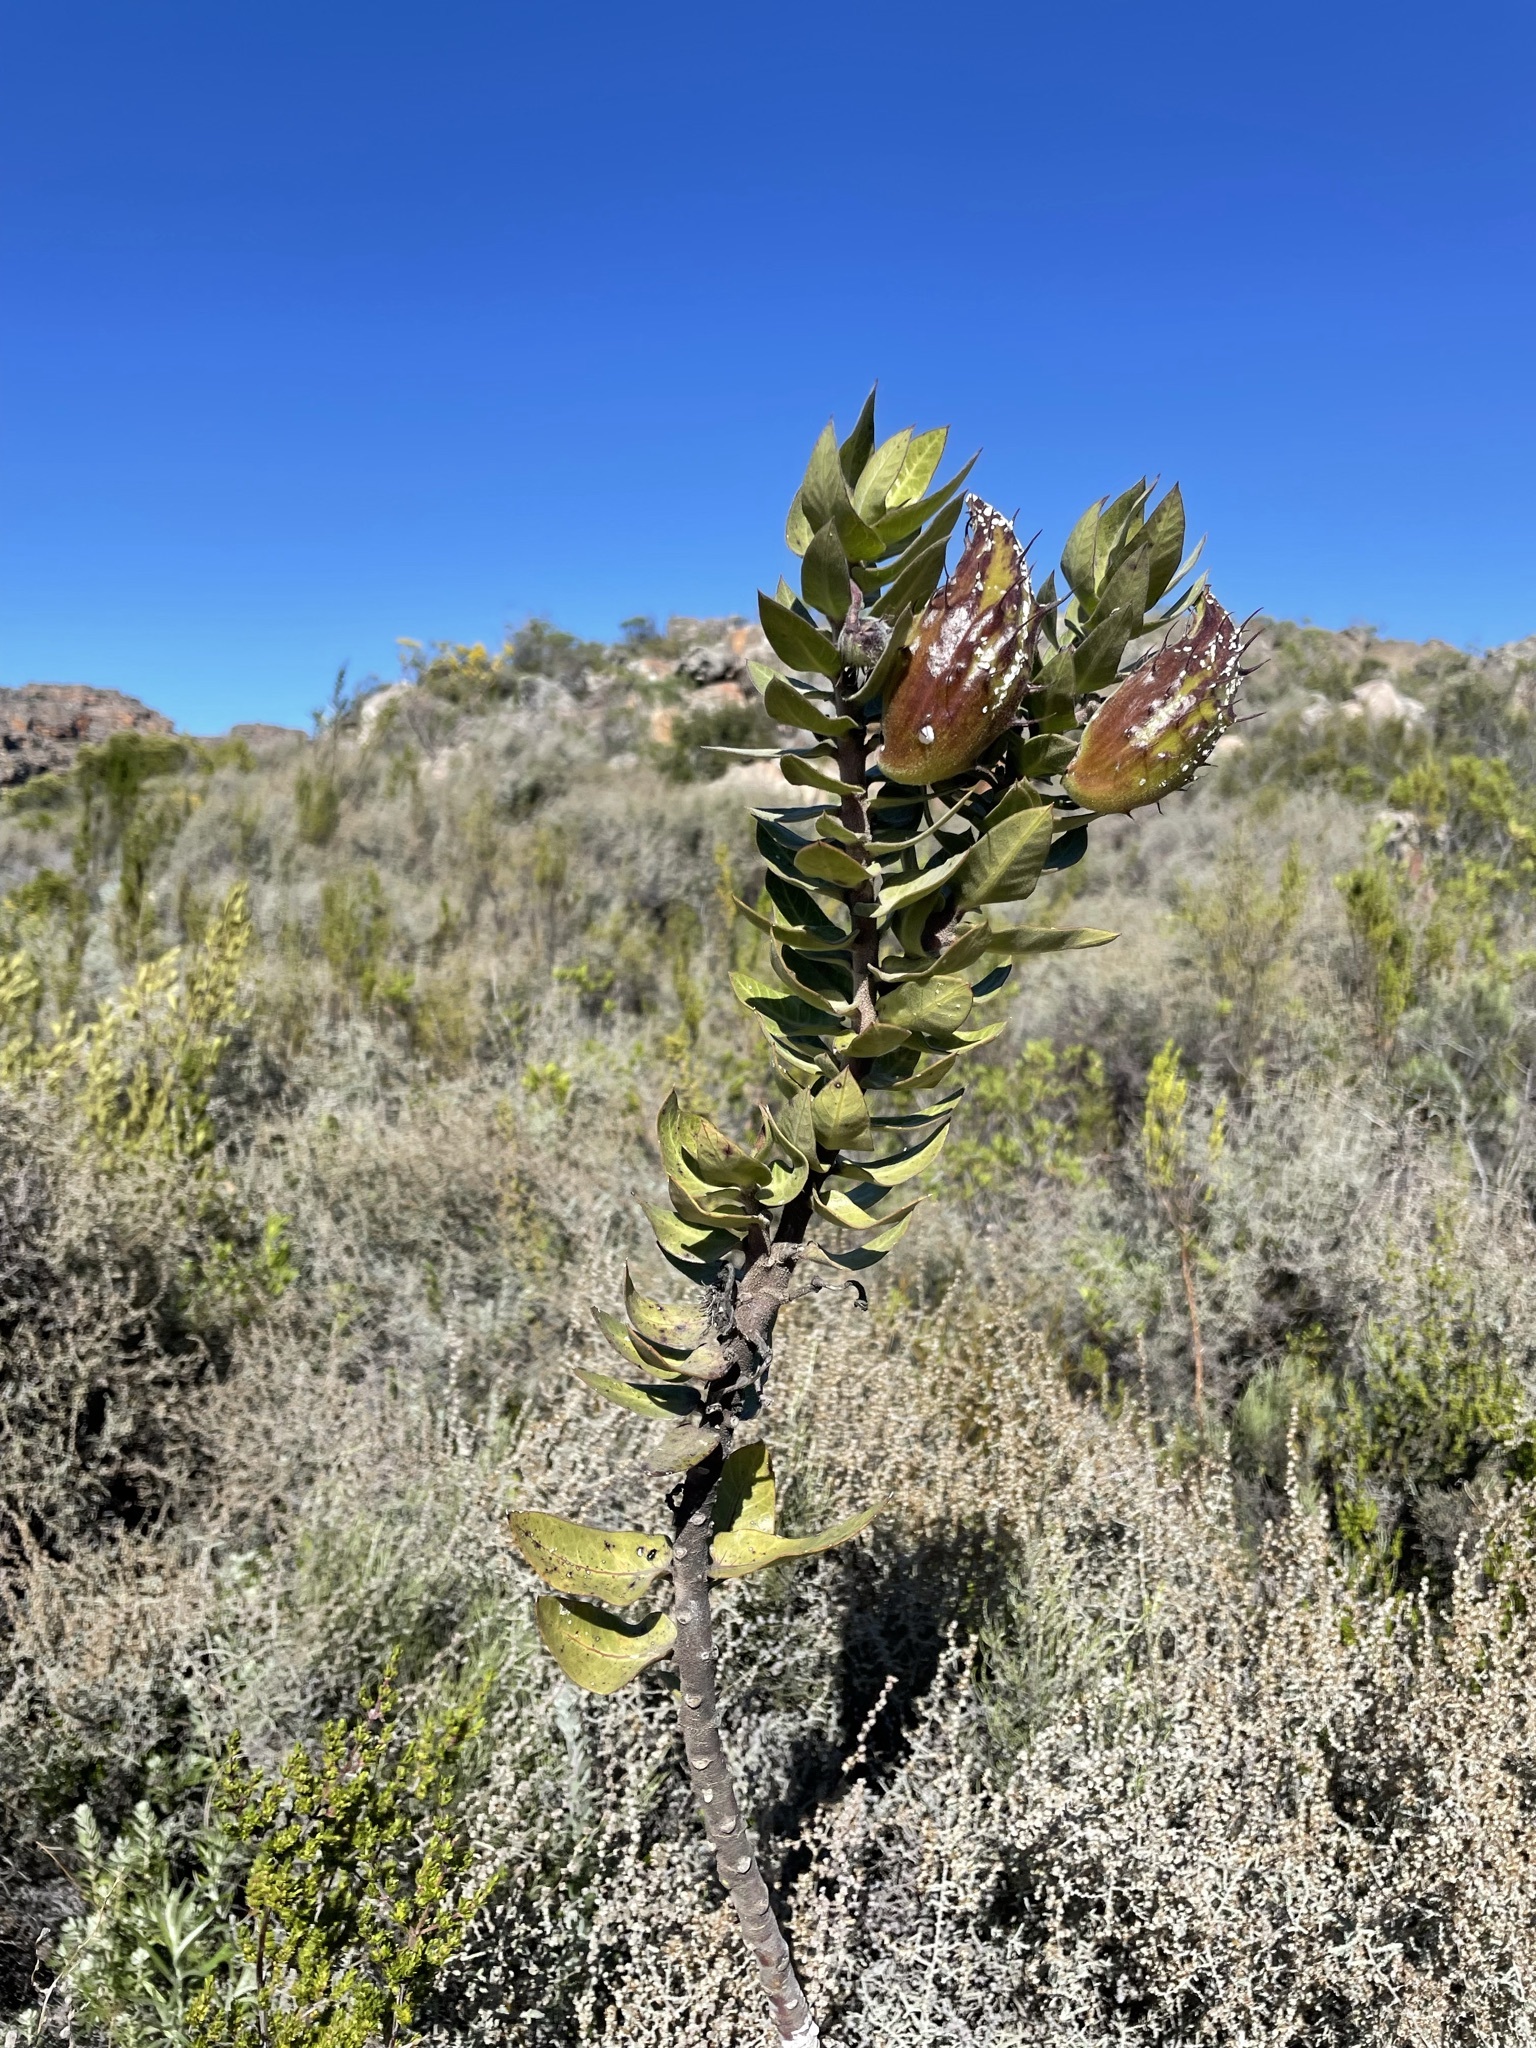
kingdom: Plantae
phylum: Tracheophyta
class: Magnoliopsida
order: Gentianales
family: Apocynaceae
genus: Gomphocarpus
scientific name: Gomphocarpus cancellatus
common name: Wild cotton
